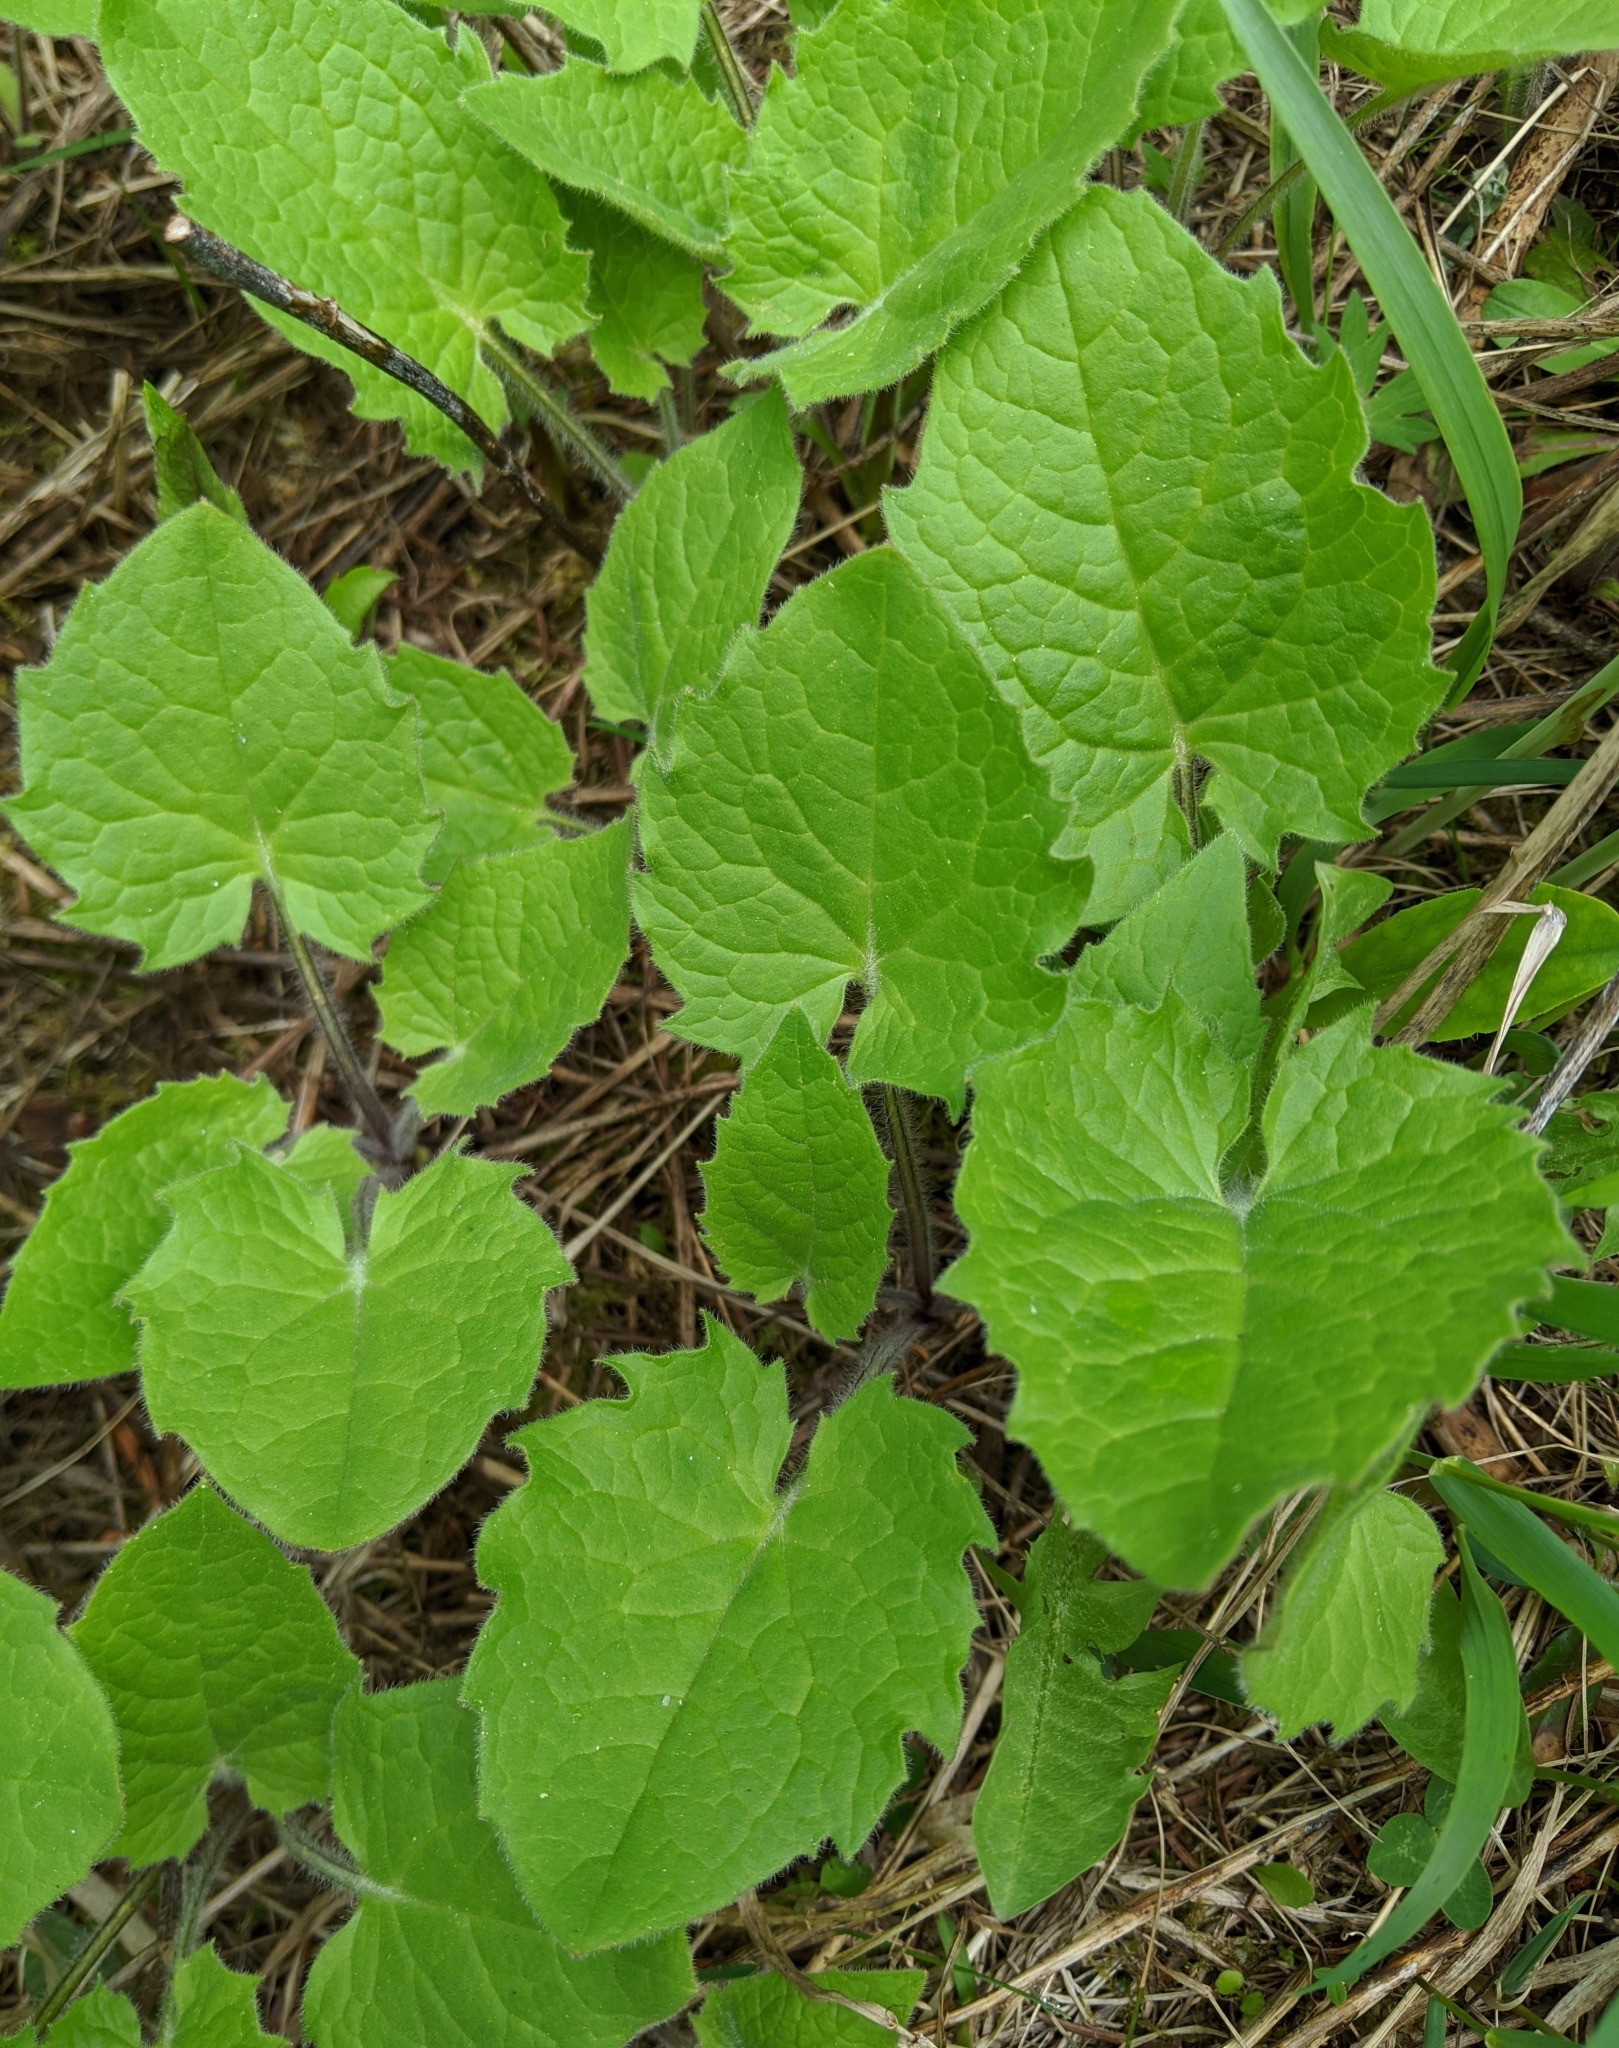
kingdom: Plantae
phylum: Tracheophyta
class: Magnoliopsida
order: Asterales
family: Asteraceae
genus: Arnica
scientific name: Arnica cordifolia
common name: Heart-leaf arnica
